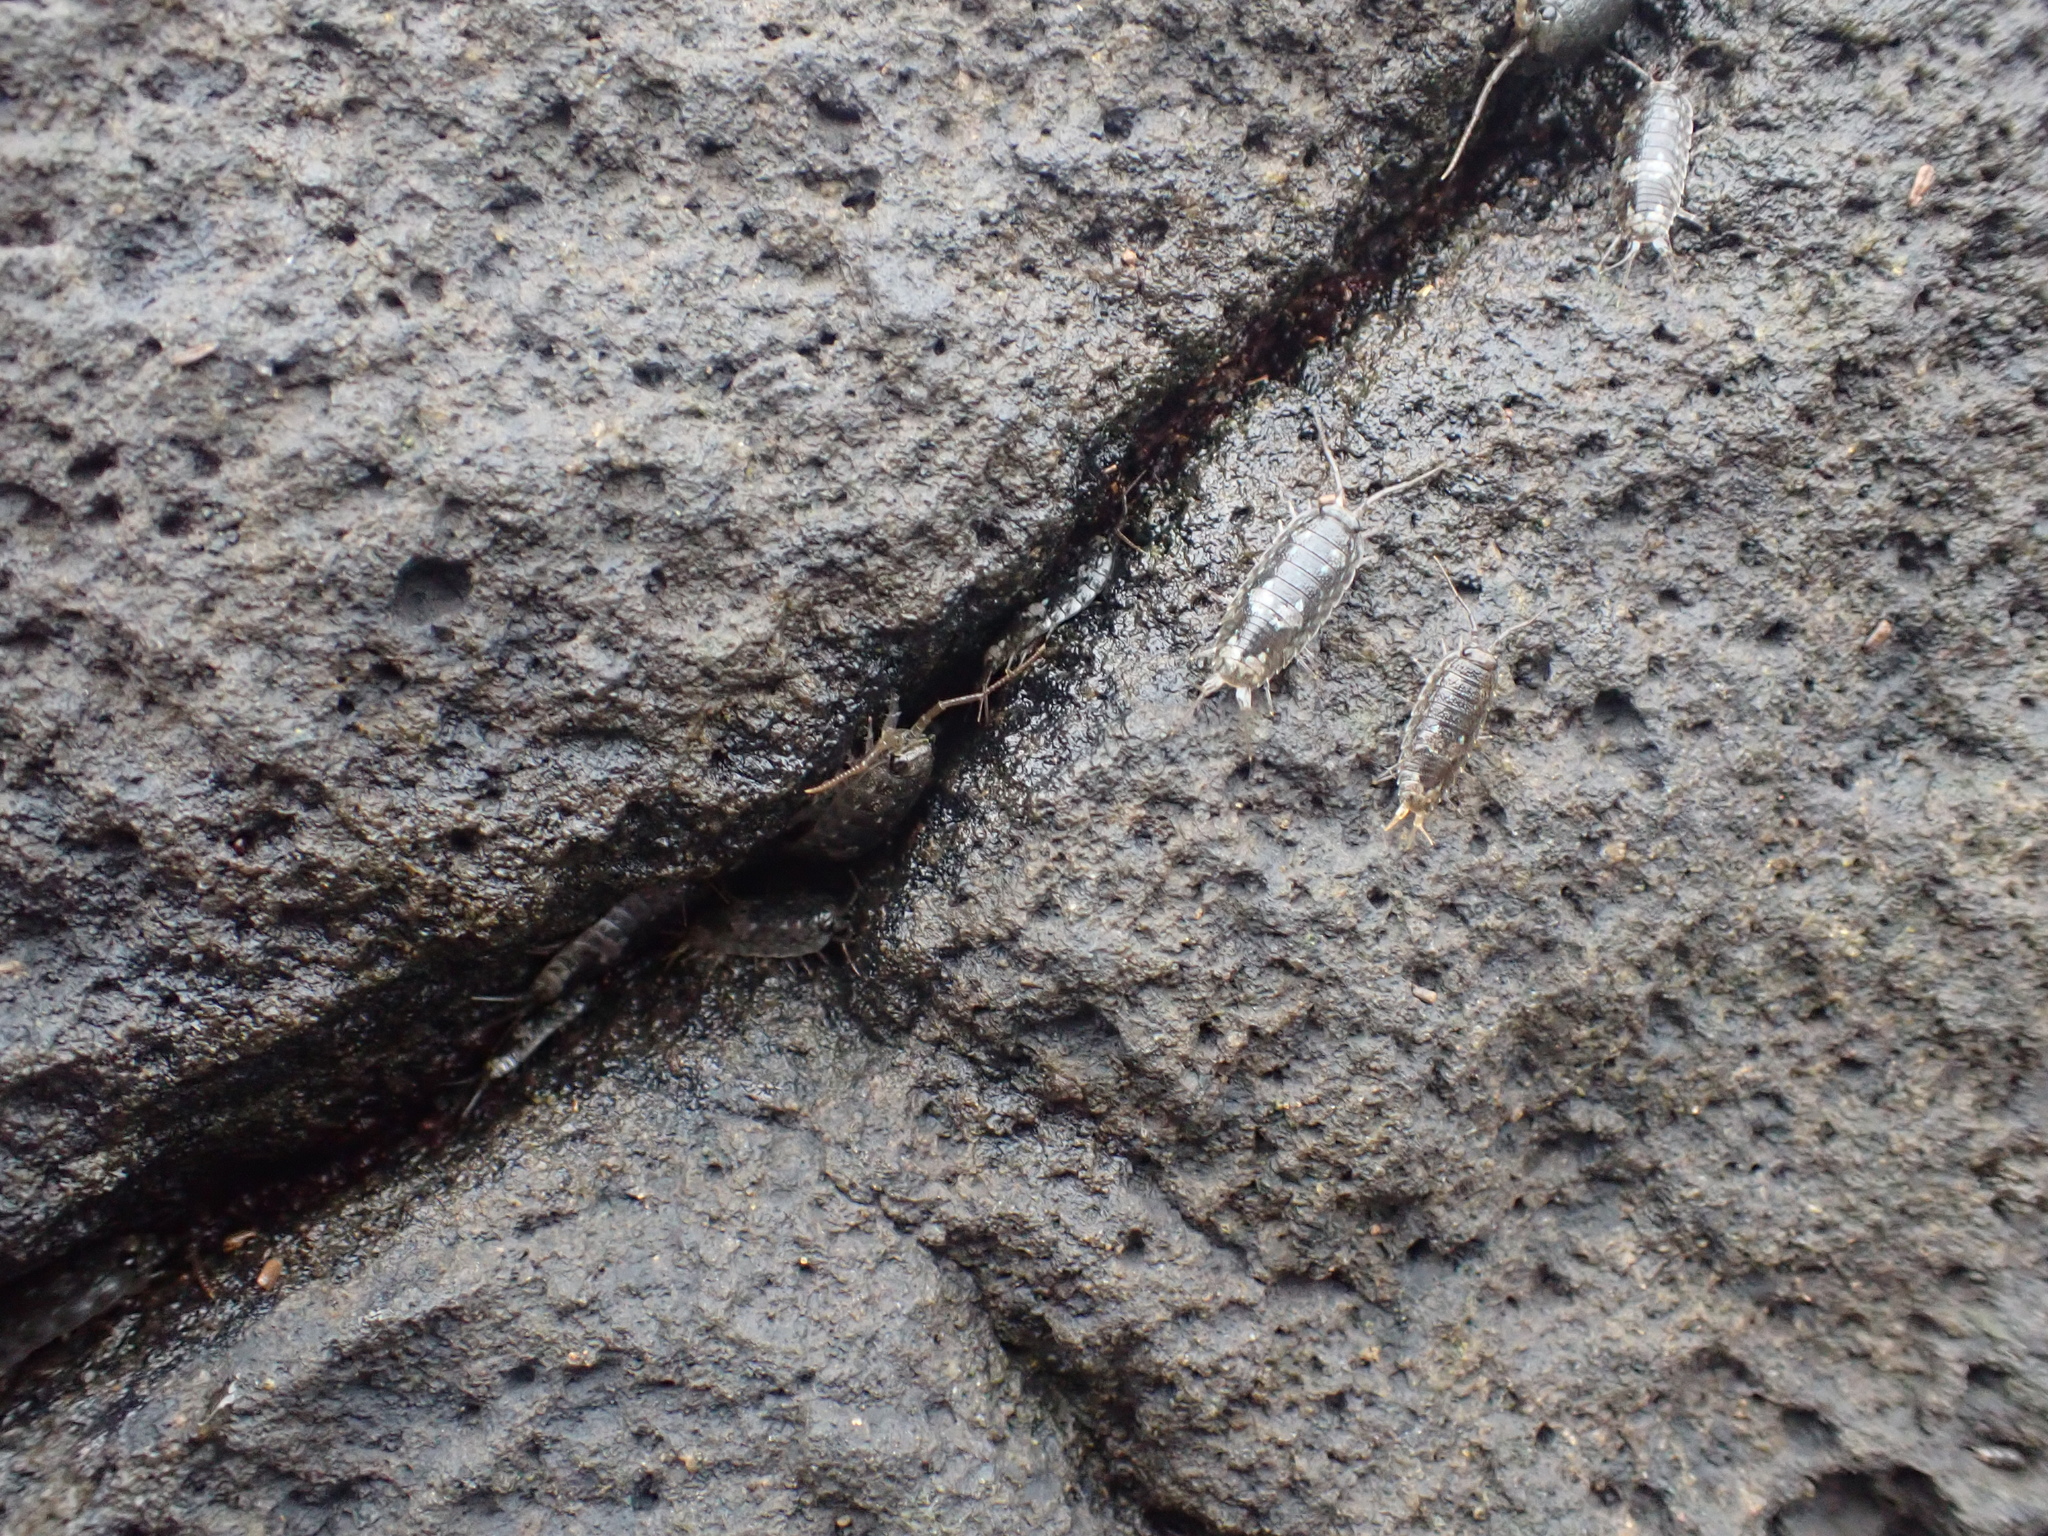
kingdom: Animalia
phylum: Arthropoda
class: Malacostraca
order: Isopoda
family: Ligiidae
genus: Ligia
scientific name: Ligia oceanica
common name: Sea slater
